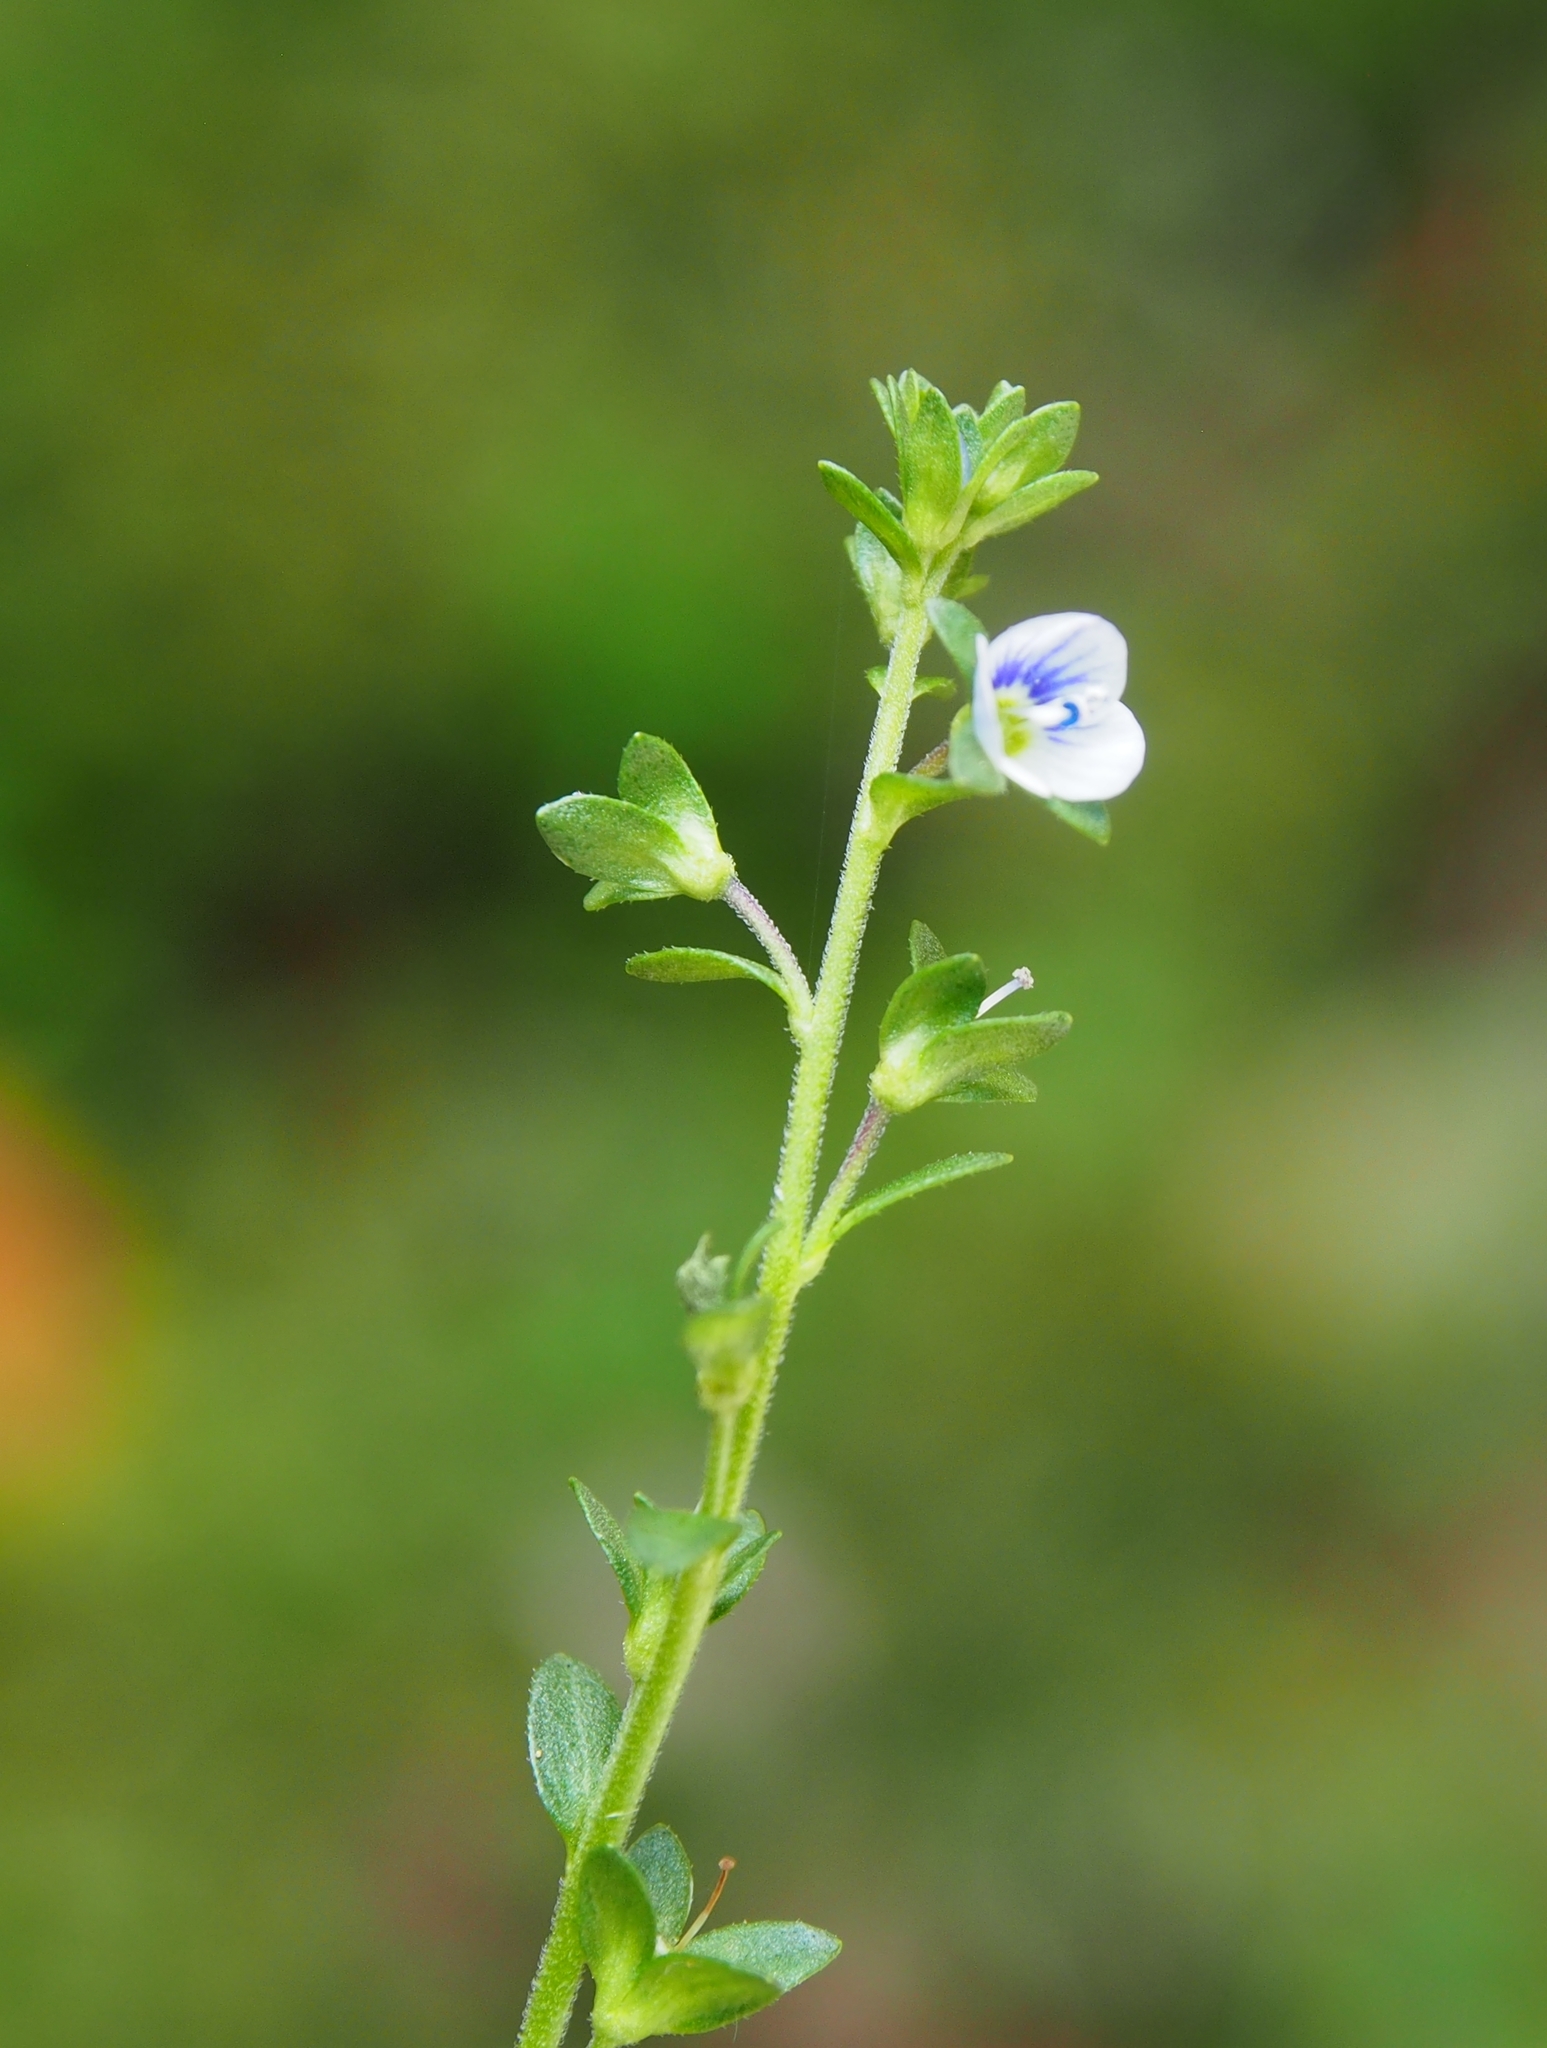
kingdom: Plantae
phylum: Tracheophyta
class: Magnoliopsida
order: Lamiales
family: Plantaginaceae
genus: Veronica
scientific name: Veronica serpyllifolia
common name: Thyme-leaved speedwell
